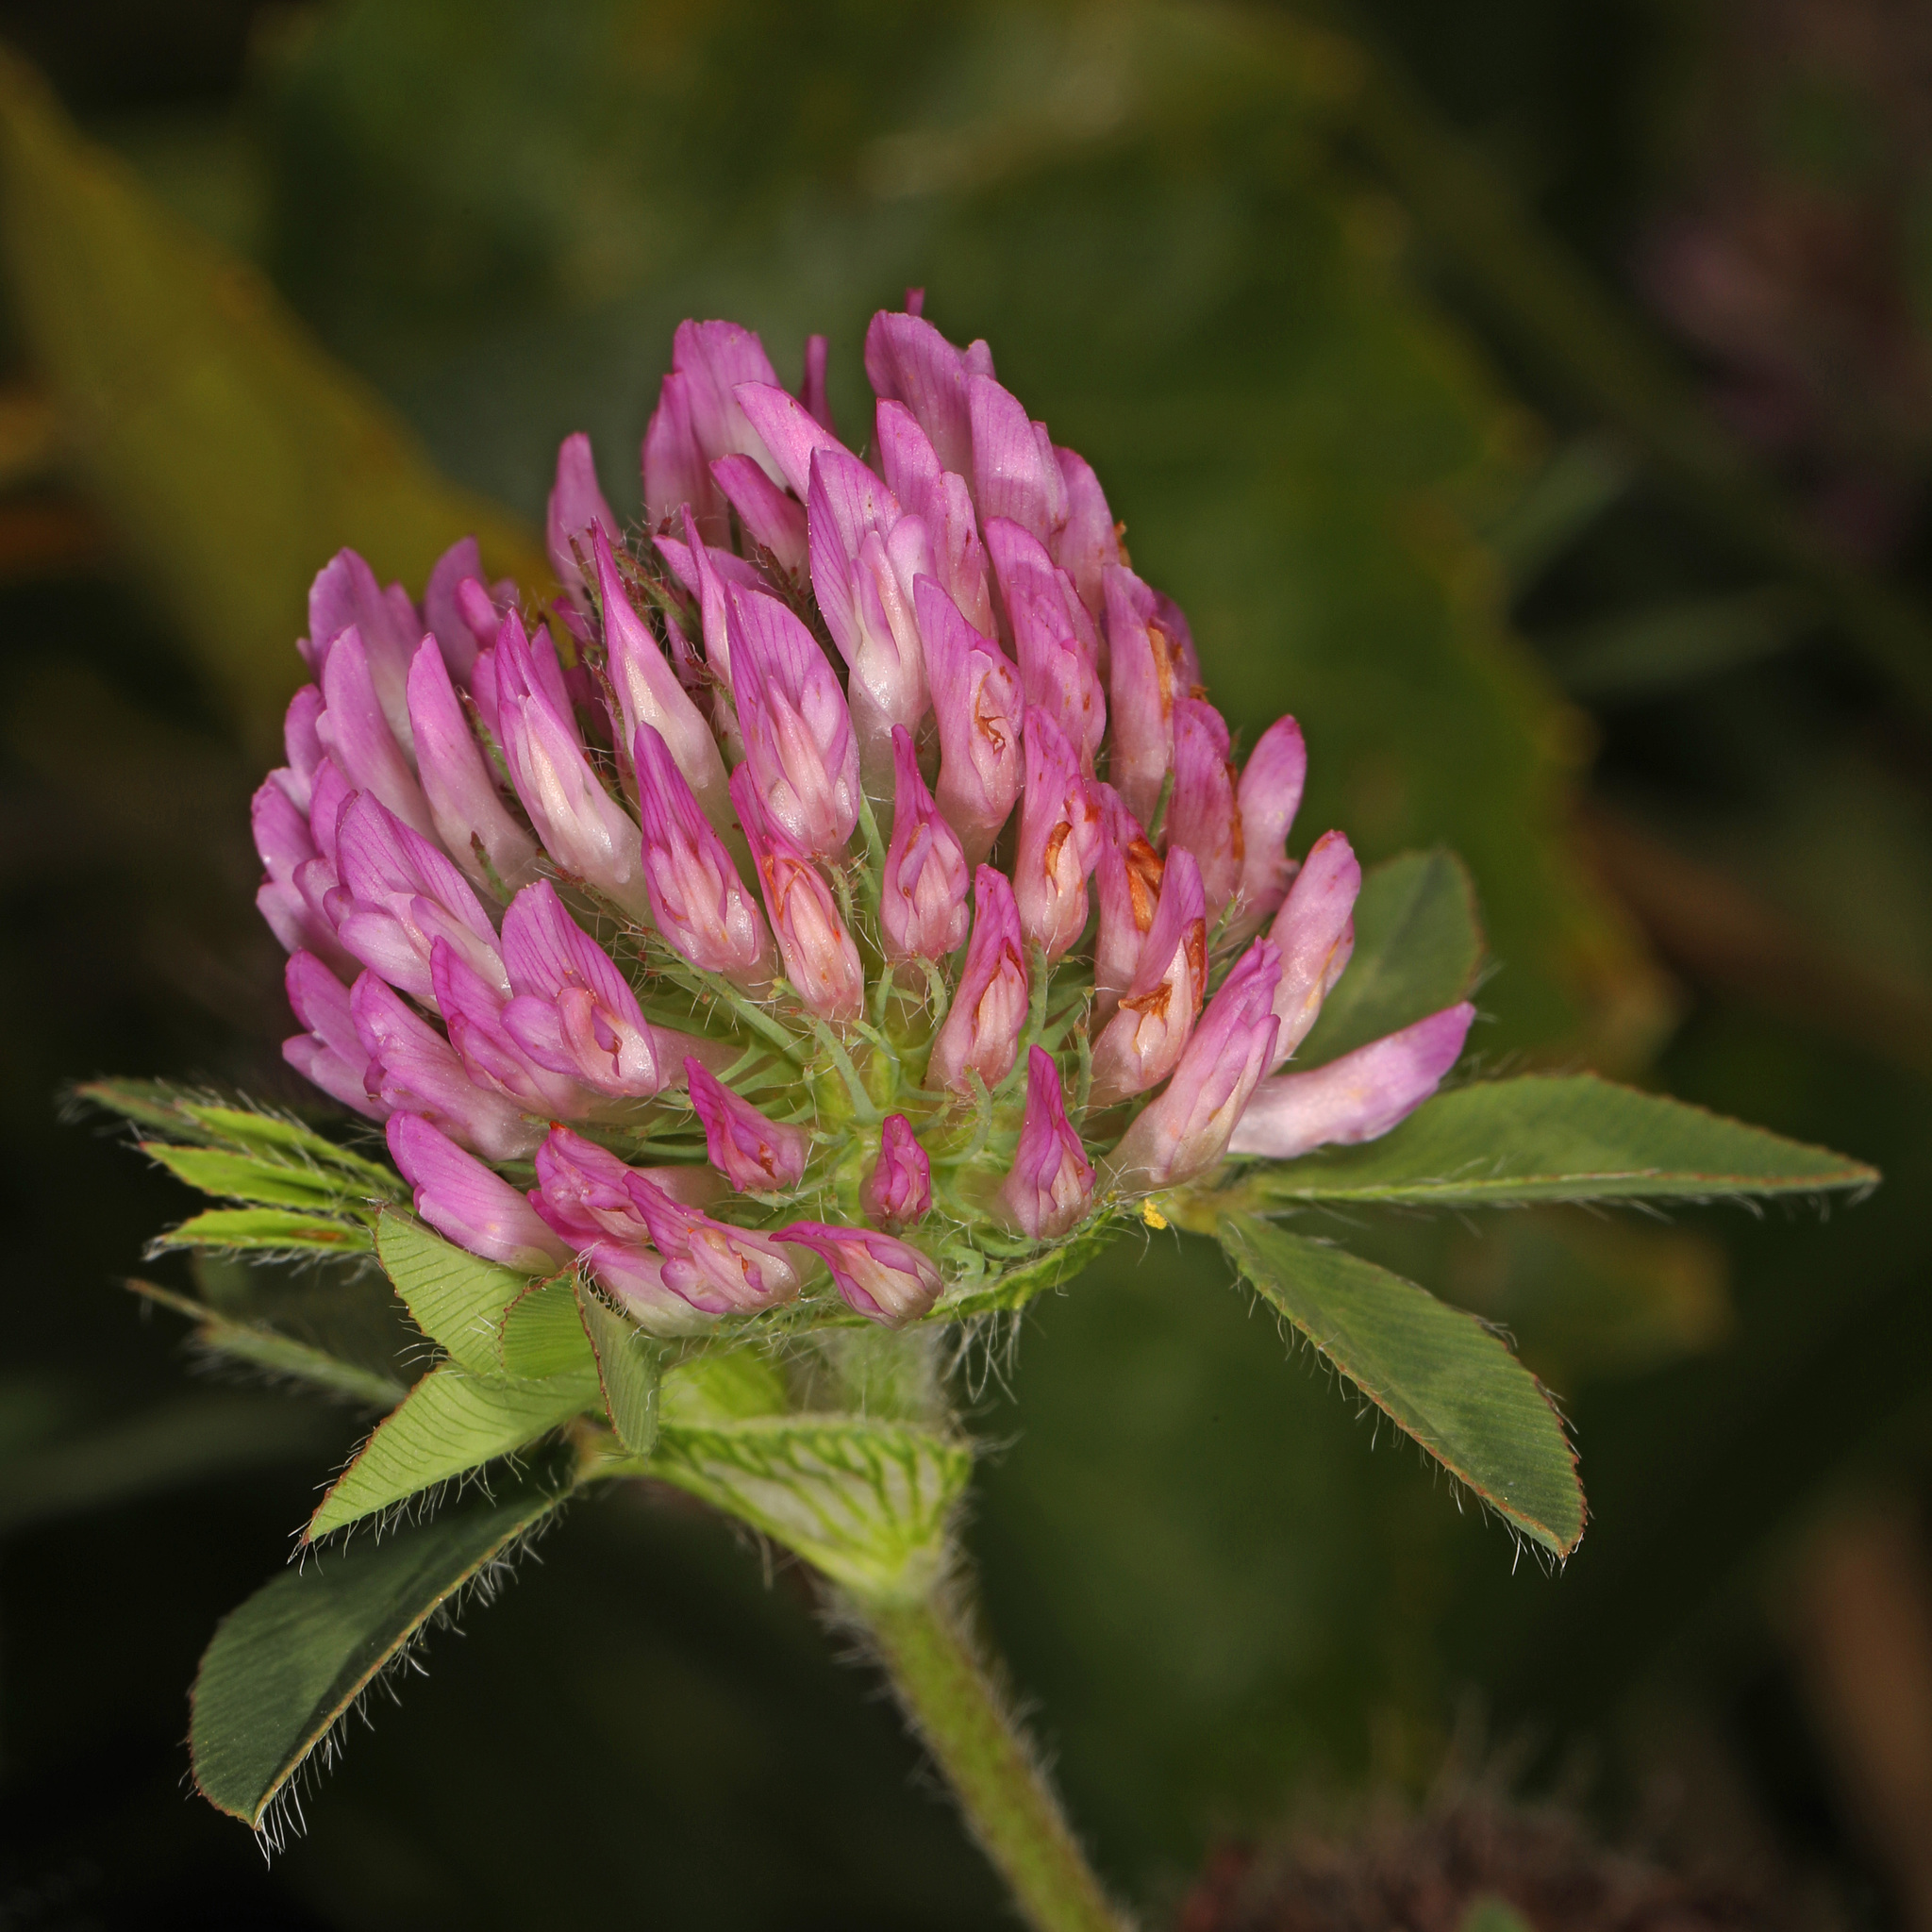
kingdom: Plantae
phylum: Tracheophyta
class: Magnoliopsida
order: Fabales
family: Fabaceae
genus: Trifolium
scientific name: Trifolium pratense
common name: Red clover
